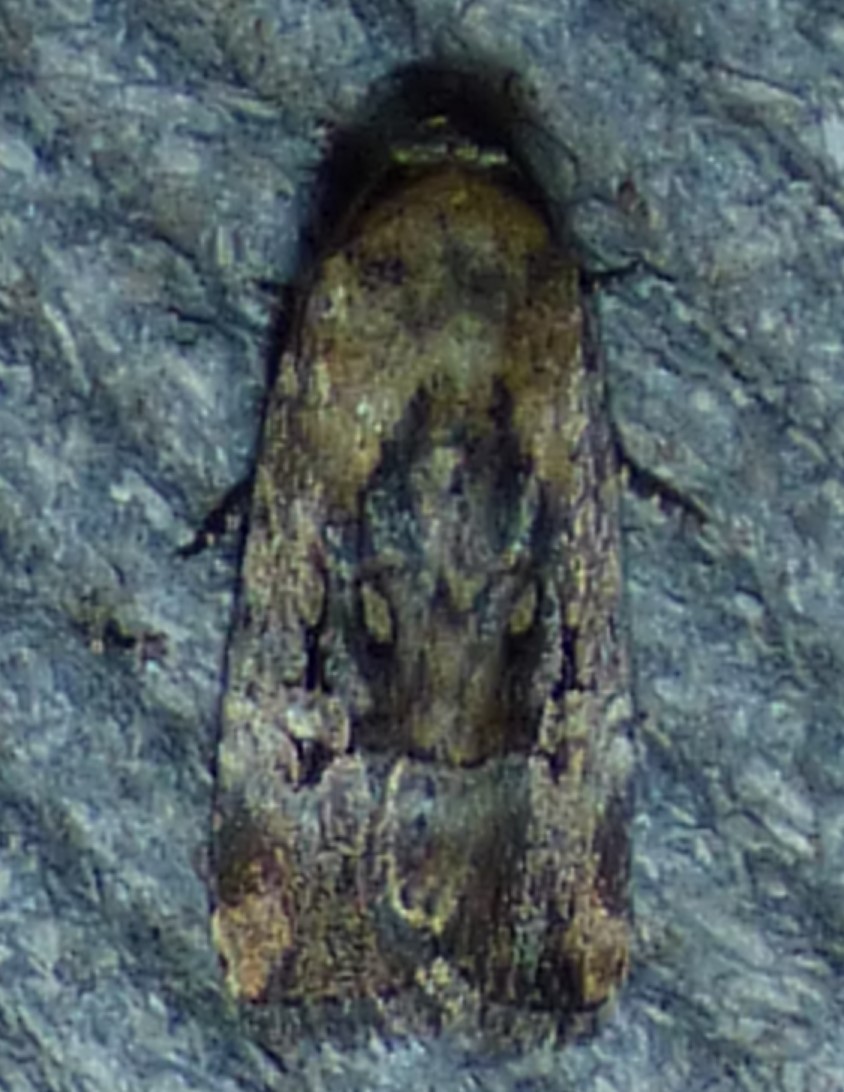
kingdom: Animalia
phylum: Arthropoda
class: Insecta
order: Lepidoptera
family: Noctuidae
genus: Elaphria
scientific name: Elaphria chalcedonia
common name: Chalcedony midget
